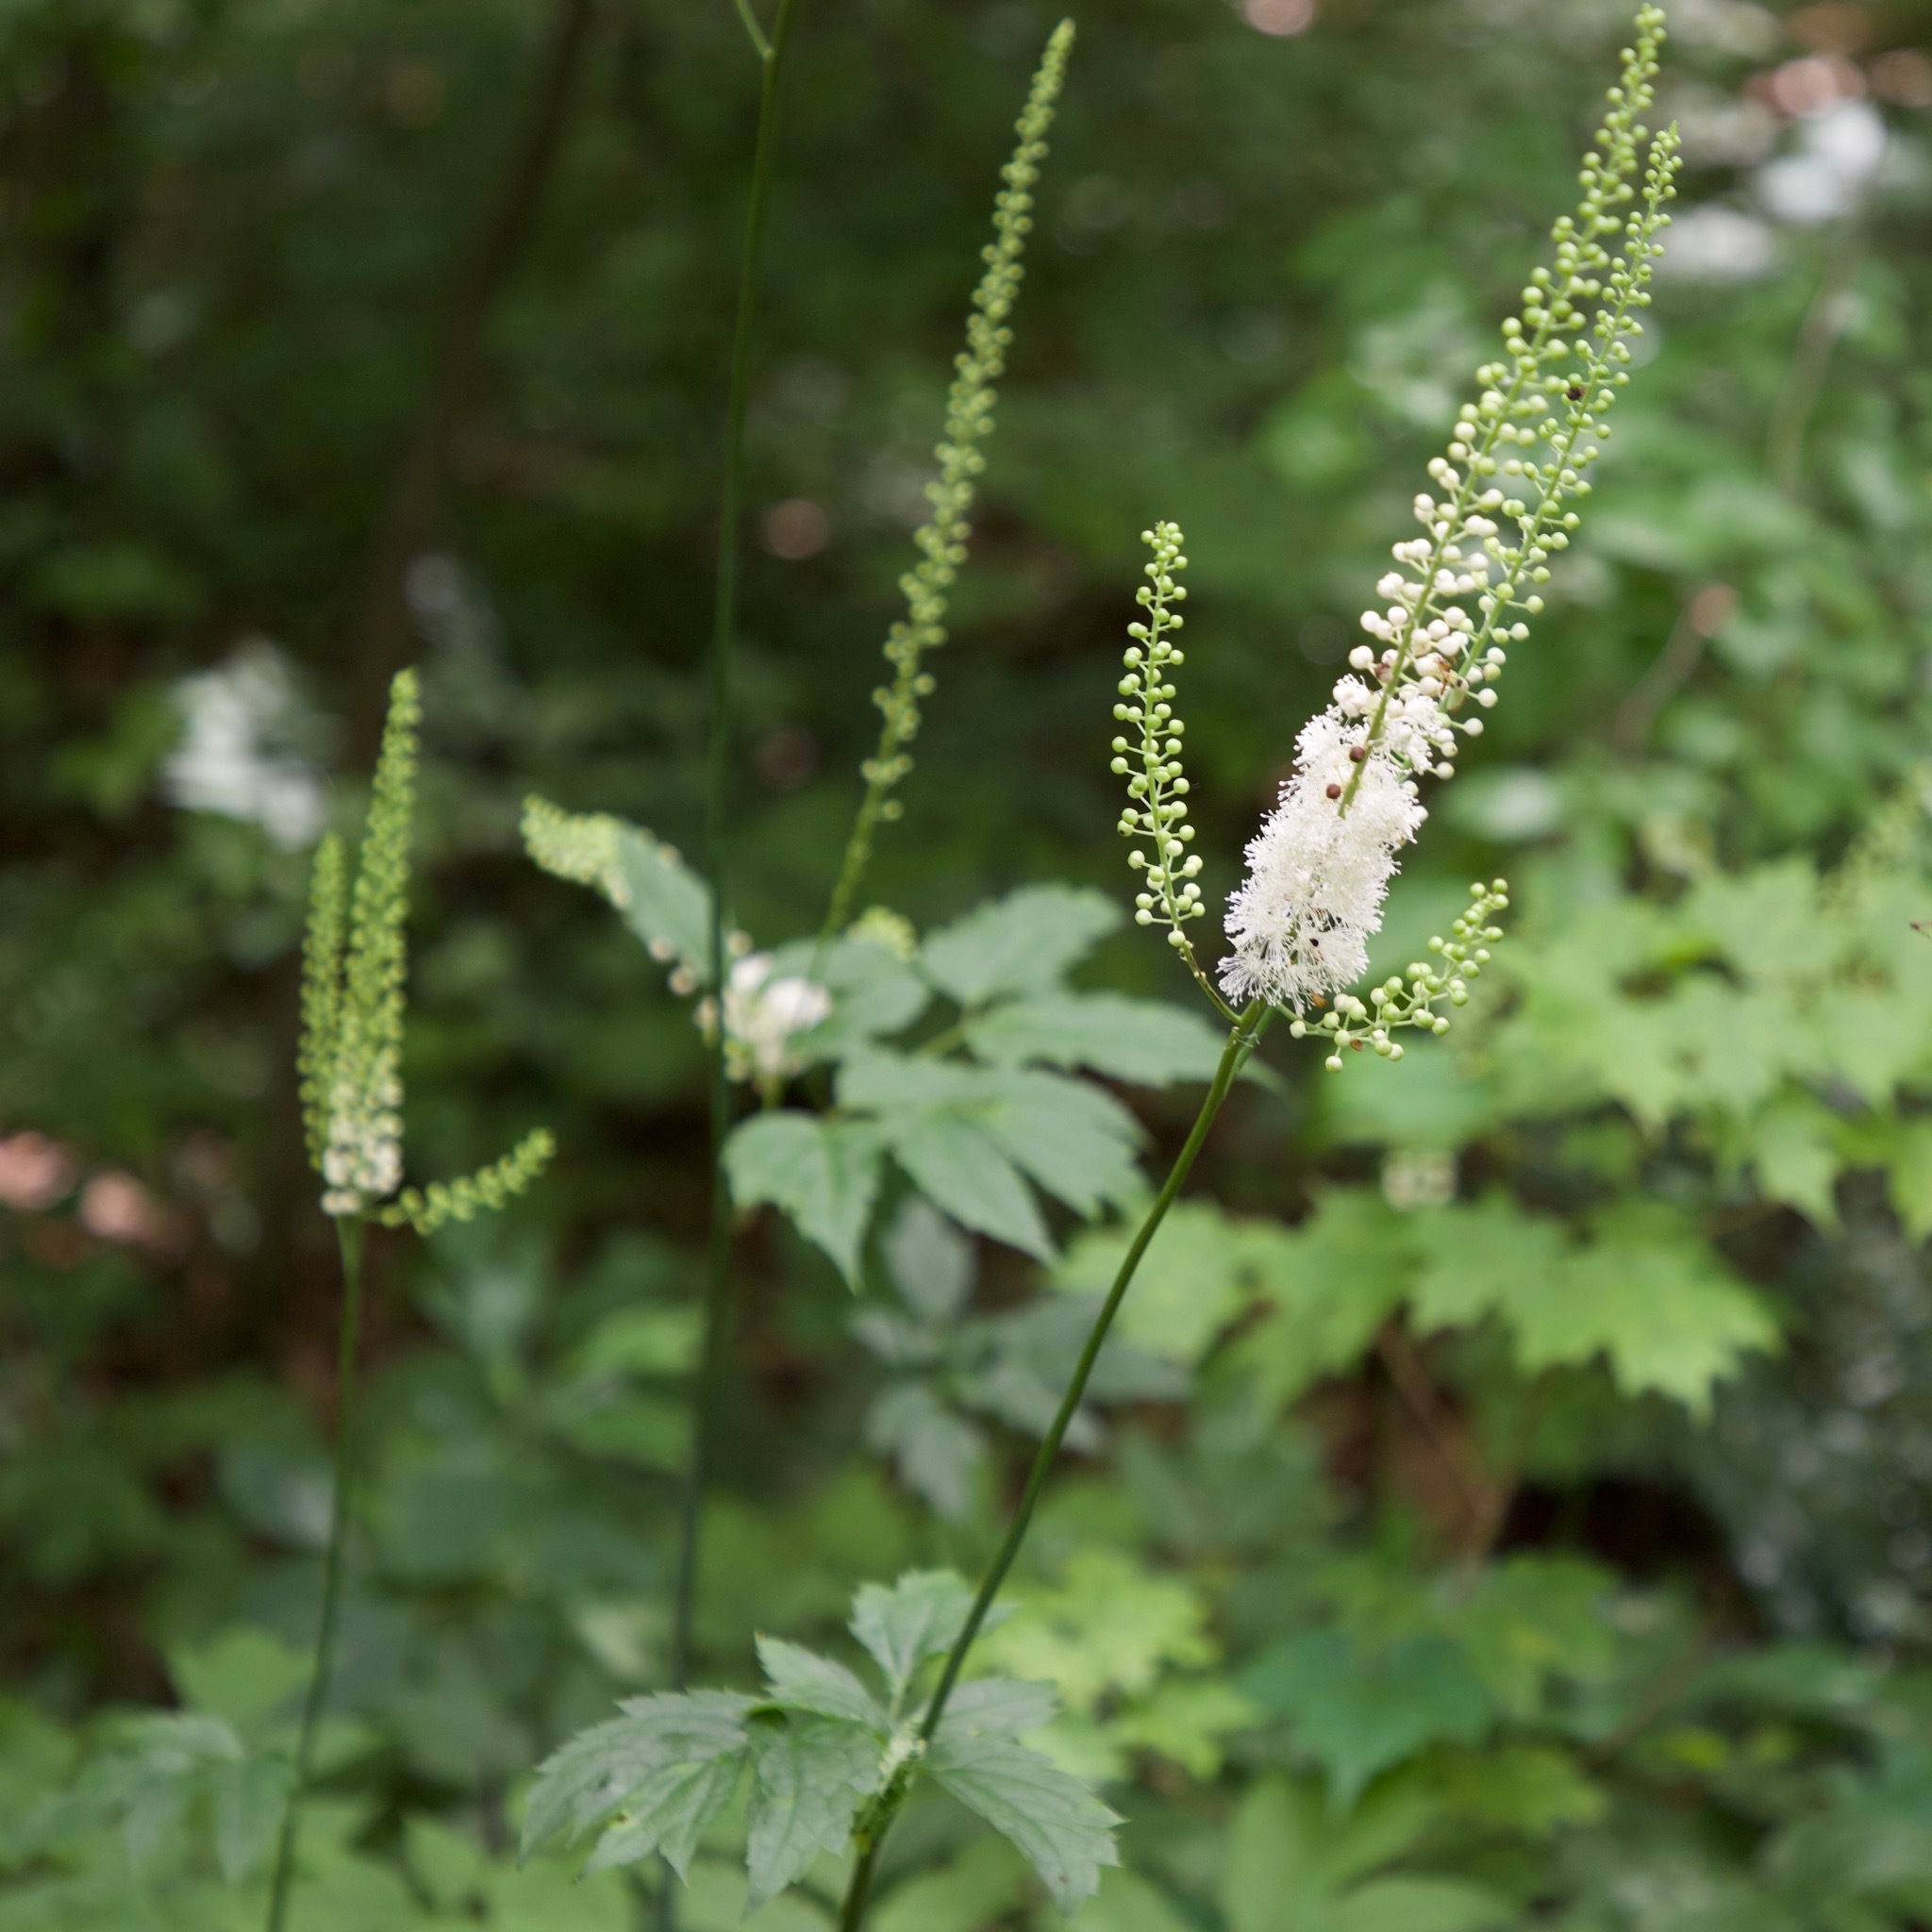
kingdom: Plantae
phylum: Tracheophyta
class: Magnoliopsida
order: Ranunculales
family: Ranunculaceae
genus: Actaea
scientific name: Actaea racemosa
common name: Black cohosh
